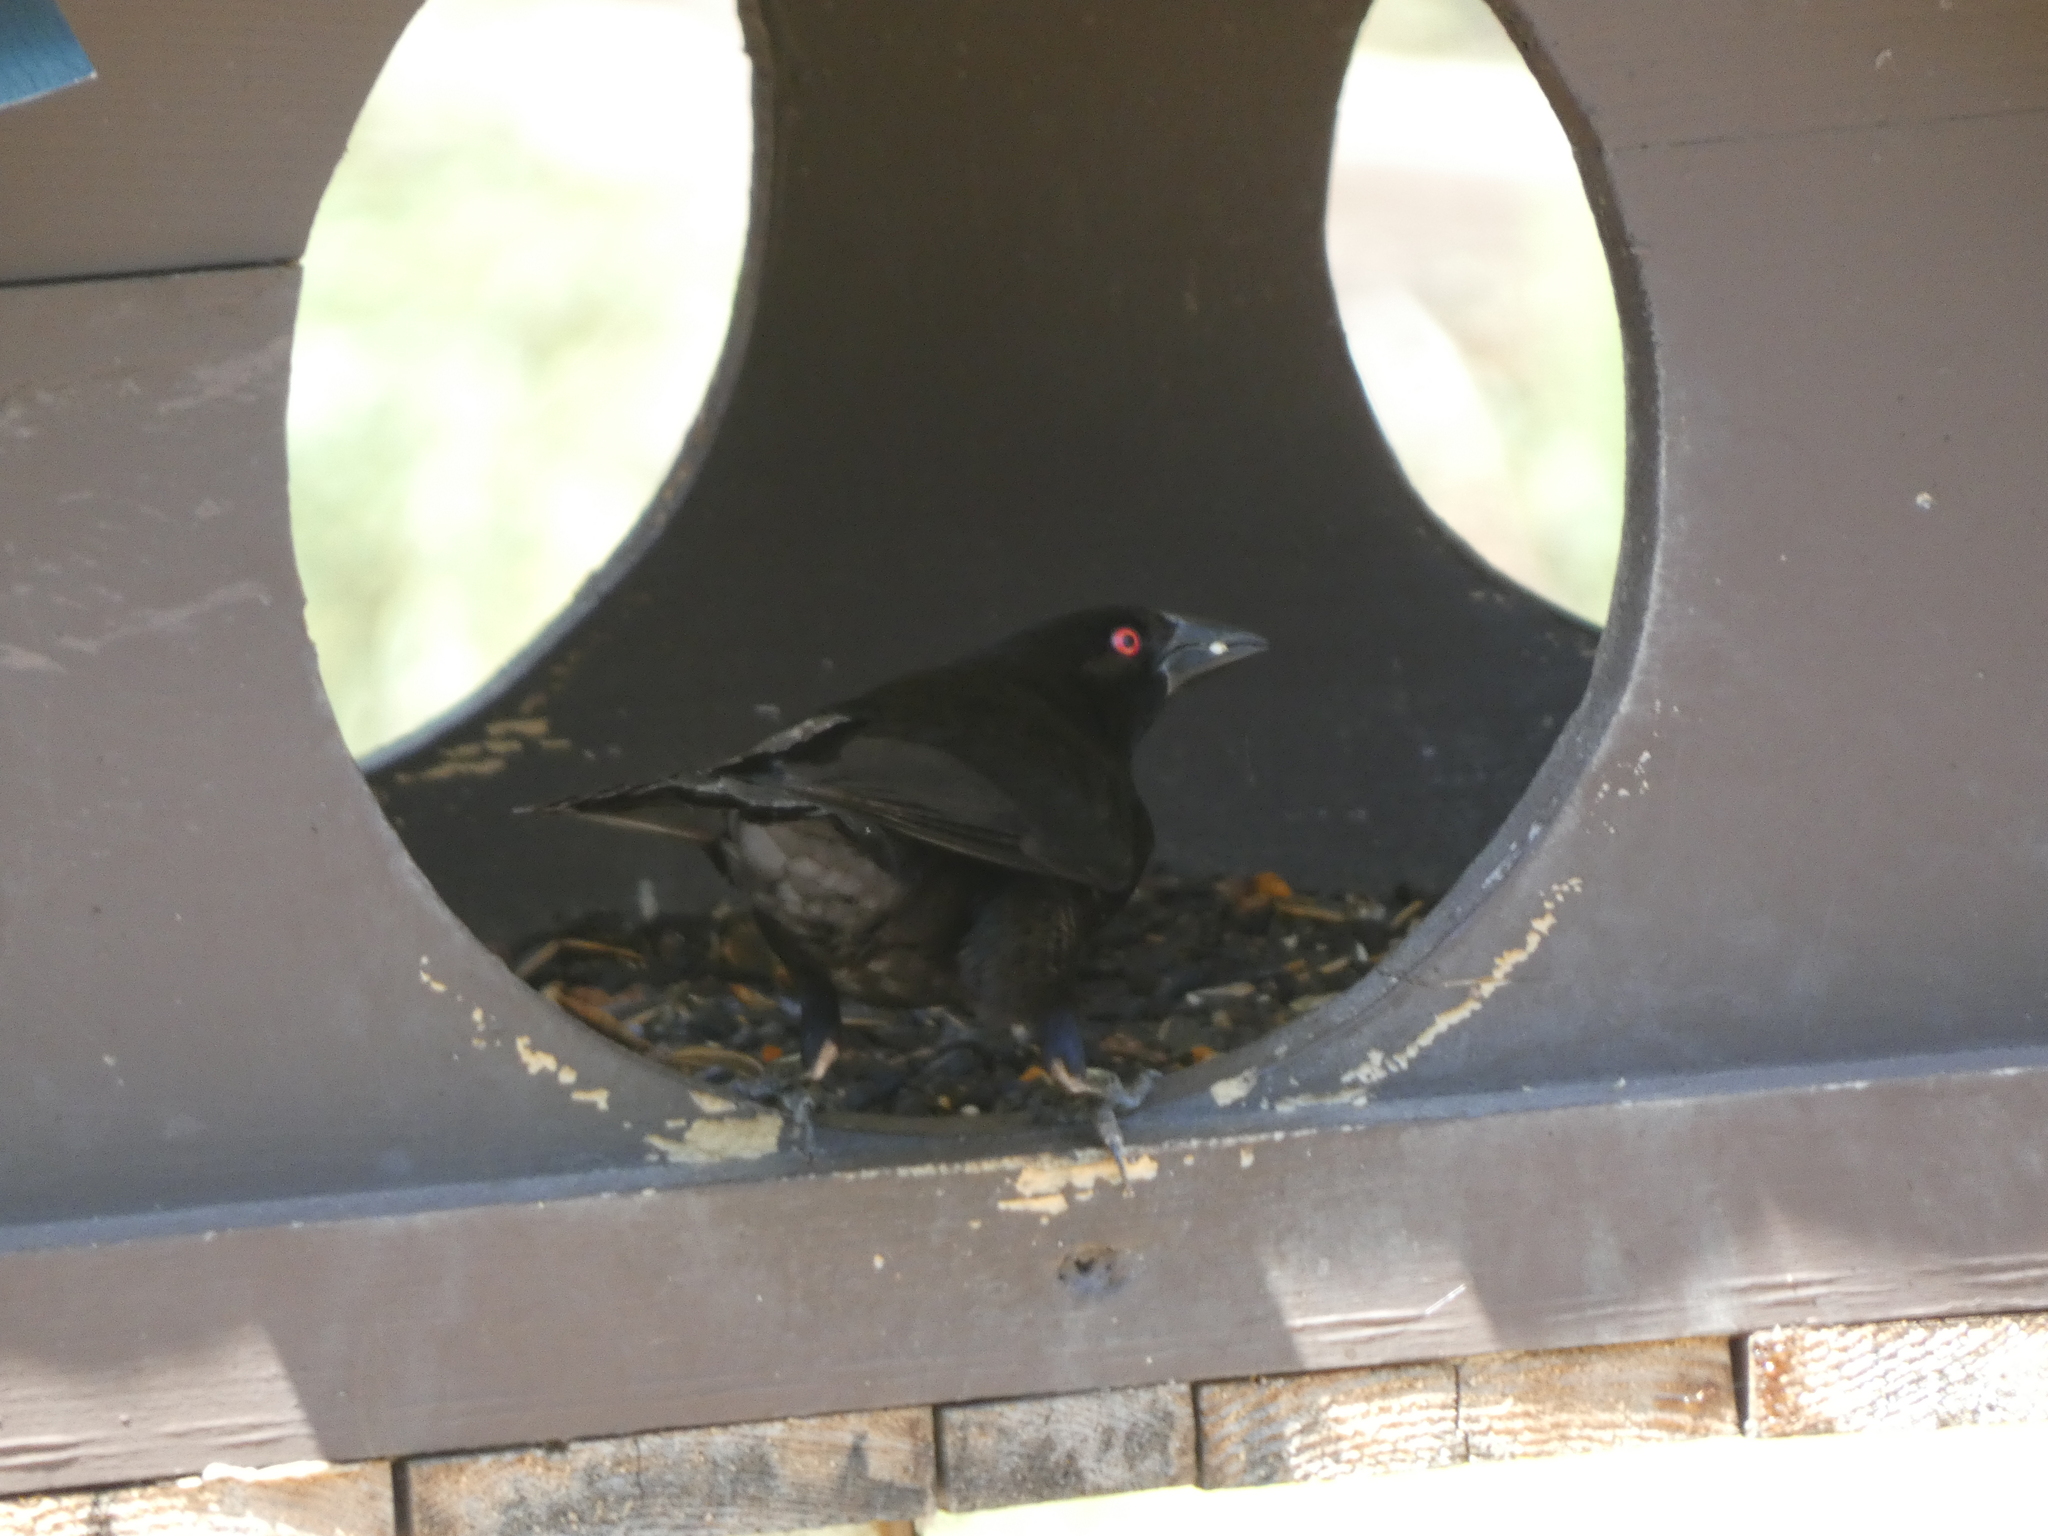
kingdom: Animalia
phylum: Chordata
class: Aves
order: Passeriformes
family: Icteridae
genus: Molothrus
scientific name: Molothrus aeneus
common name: Bronzed cowbird
